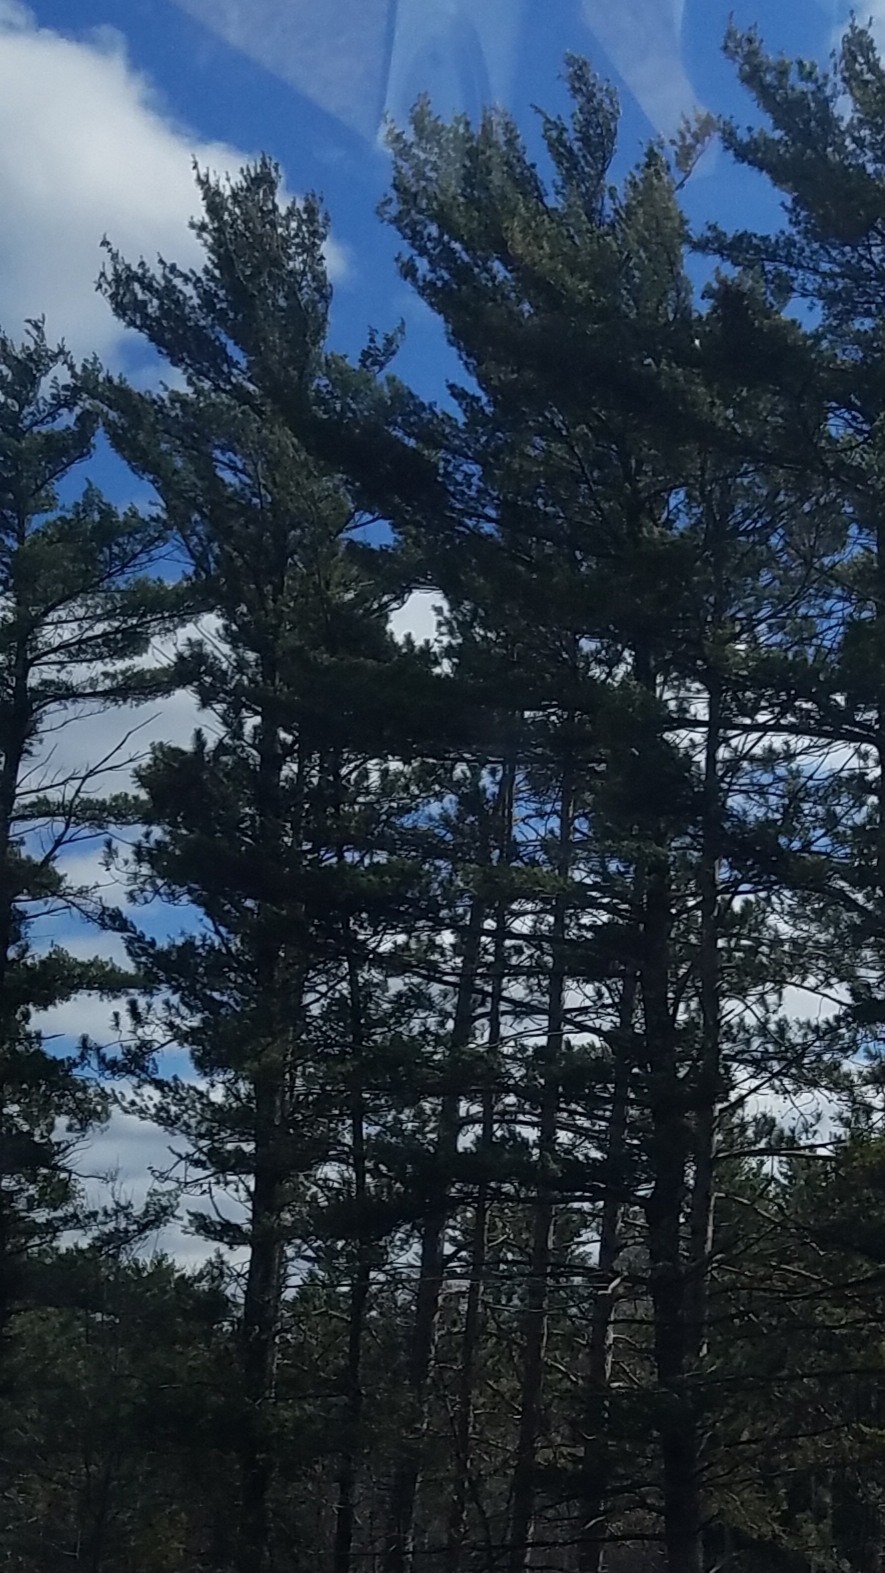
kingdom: Plantae
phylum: Tracheophyta
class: Pinopsida
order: Pinales
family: Pinaceae
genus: Pinus
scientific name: Pinus strobus
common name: Weymouth pine
